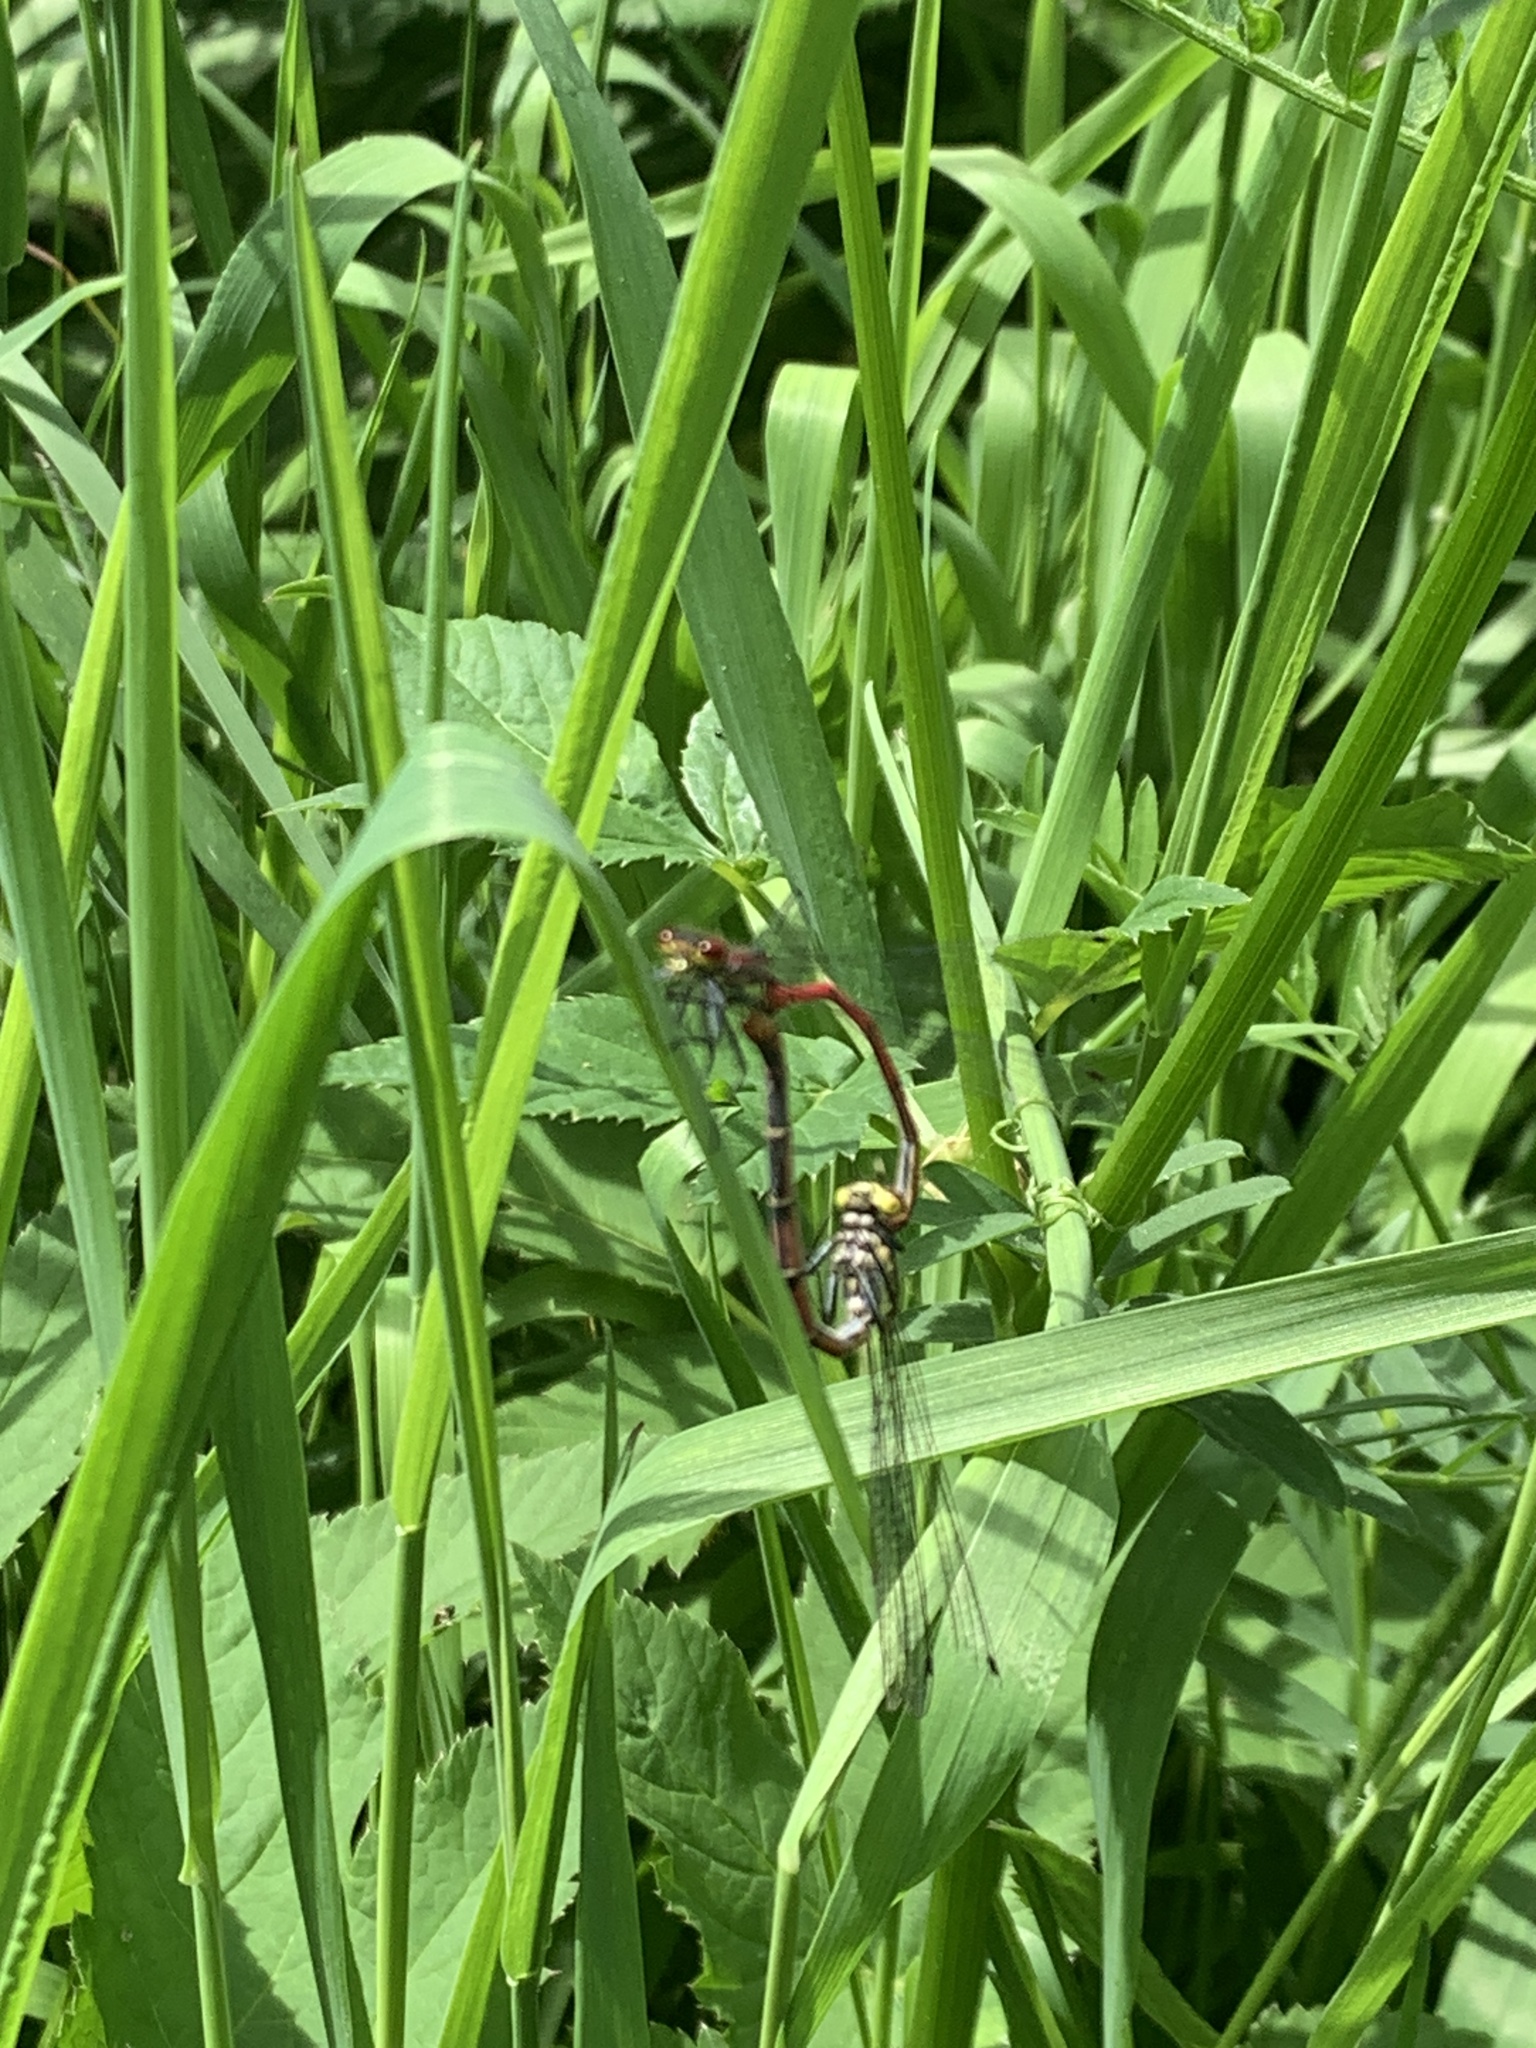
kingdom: Animalia
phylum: Arthropoda
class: Insecta
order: Odonata
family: Coenagrionidae
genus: Pyrrhosoma
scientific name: Pyrrhosoma nymphula
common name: Large red damsel
